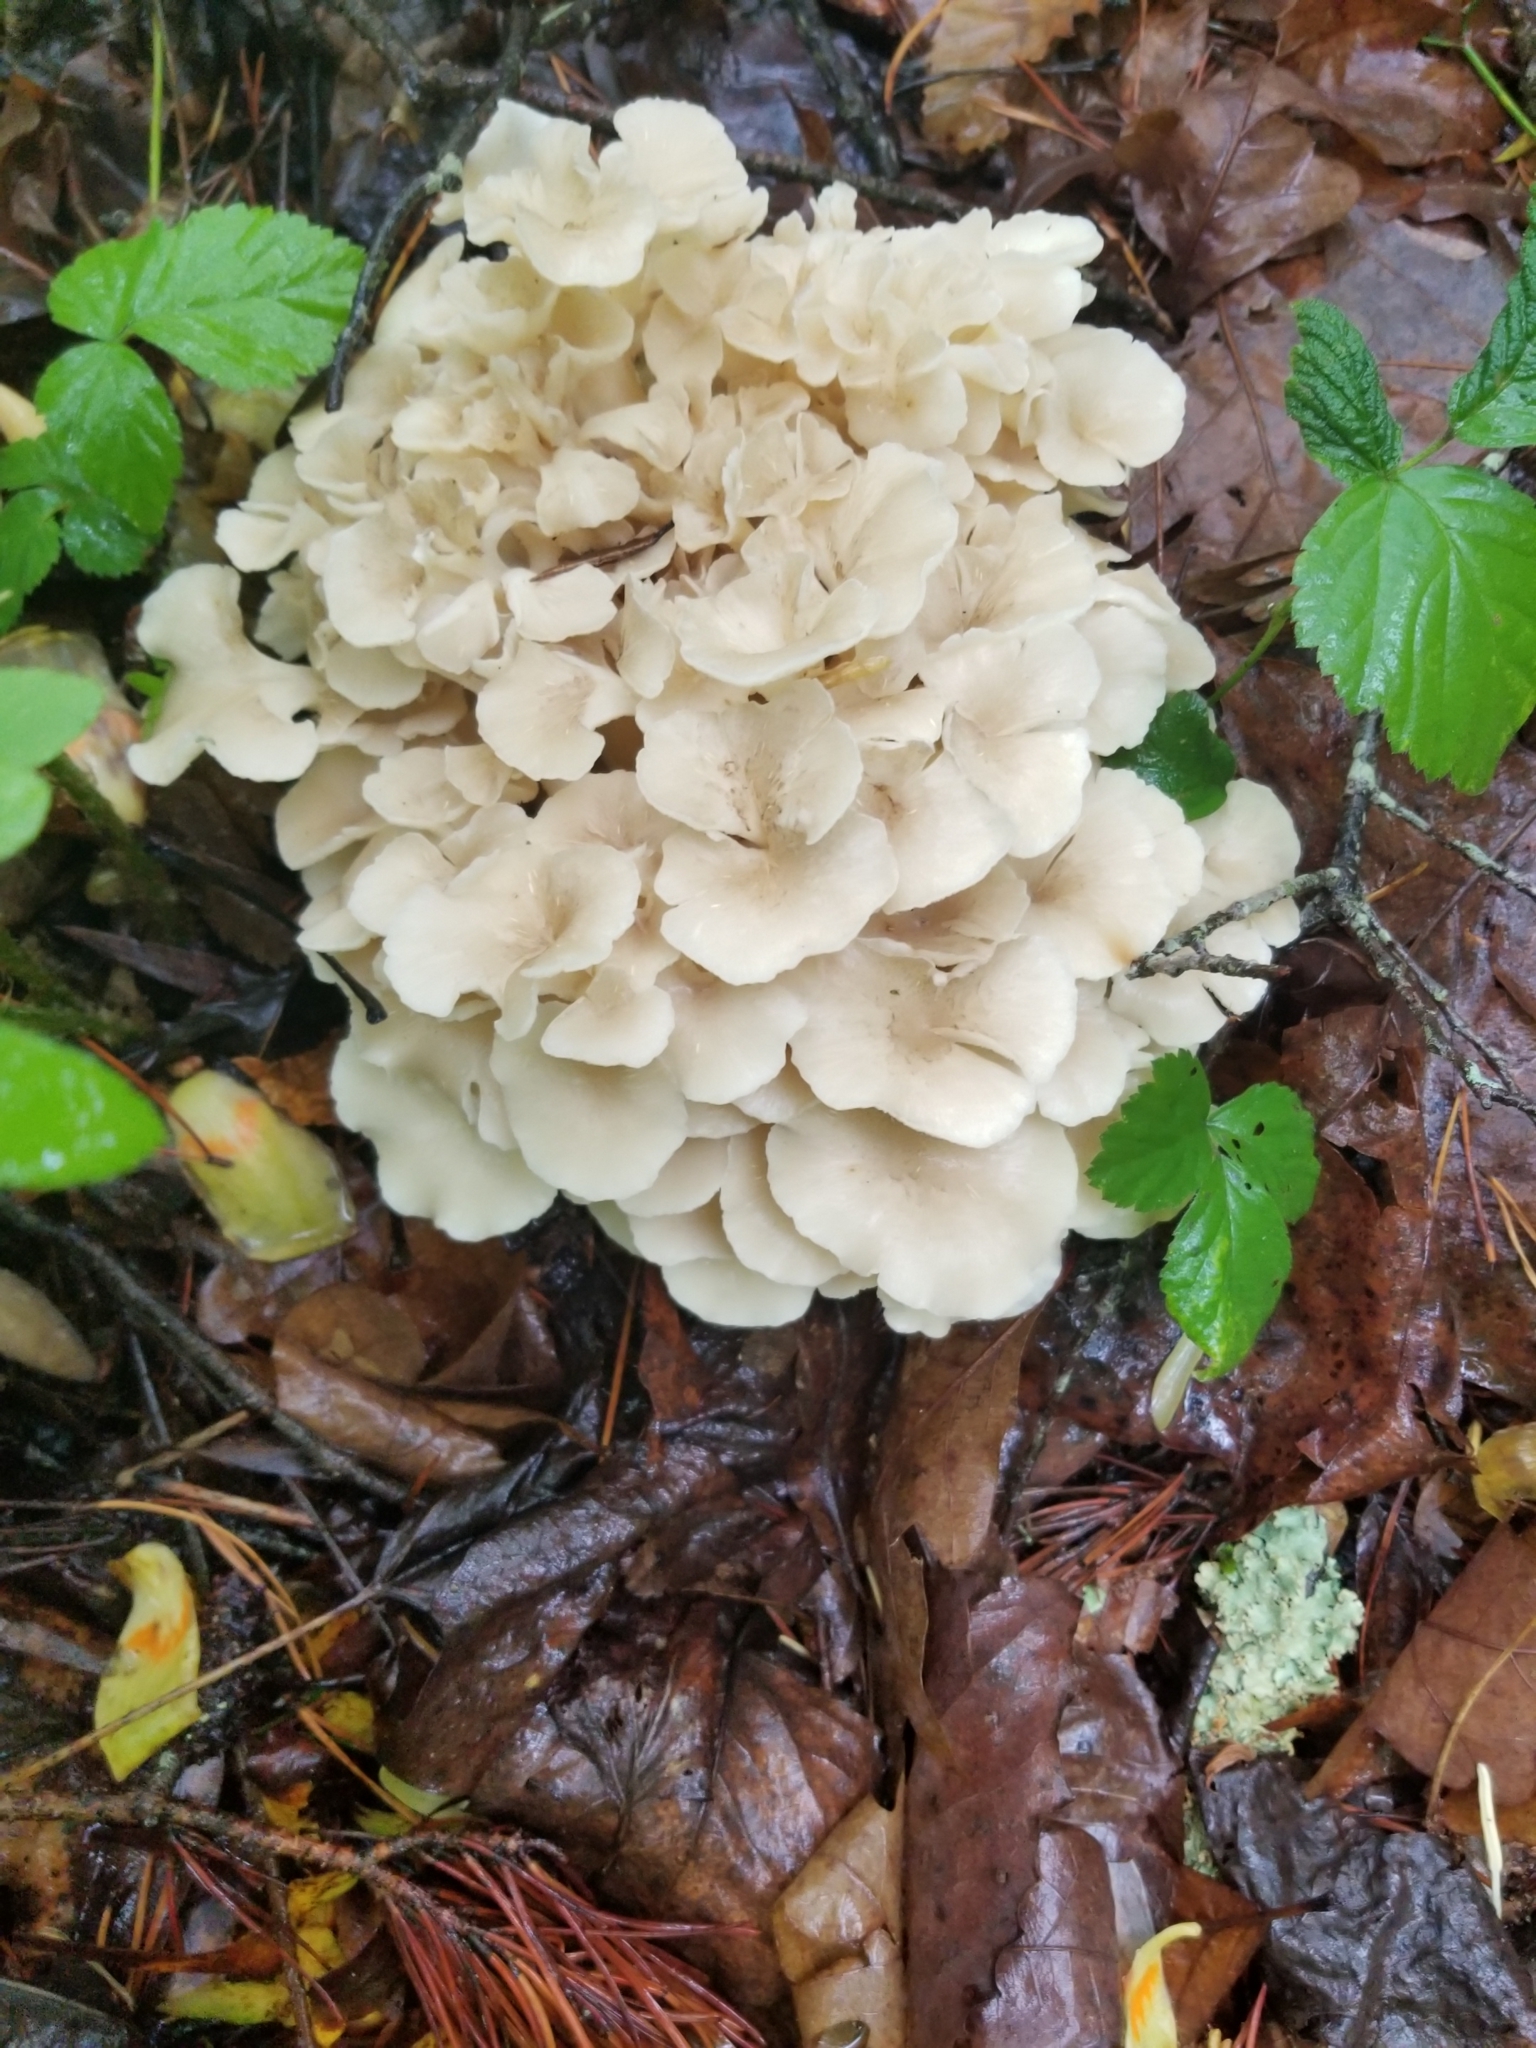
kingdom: Fungi
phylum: Basidiomycota
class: Agaricomycetes
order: Polyporales
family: Polyporaceae
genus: Polyporus
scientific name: Polyporus umbellatus
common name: Umbrella polypore
